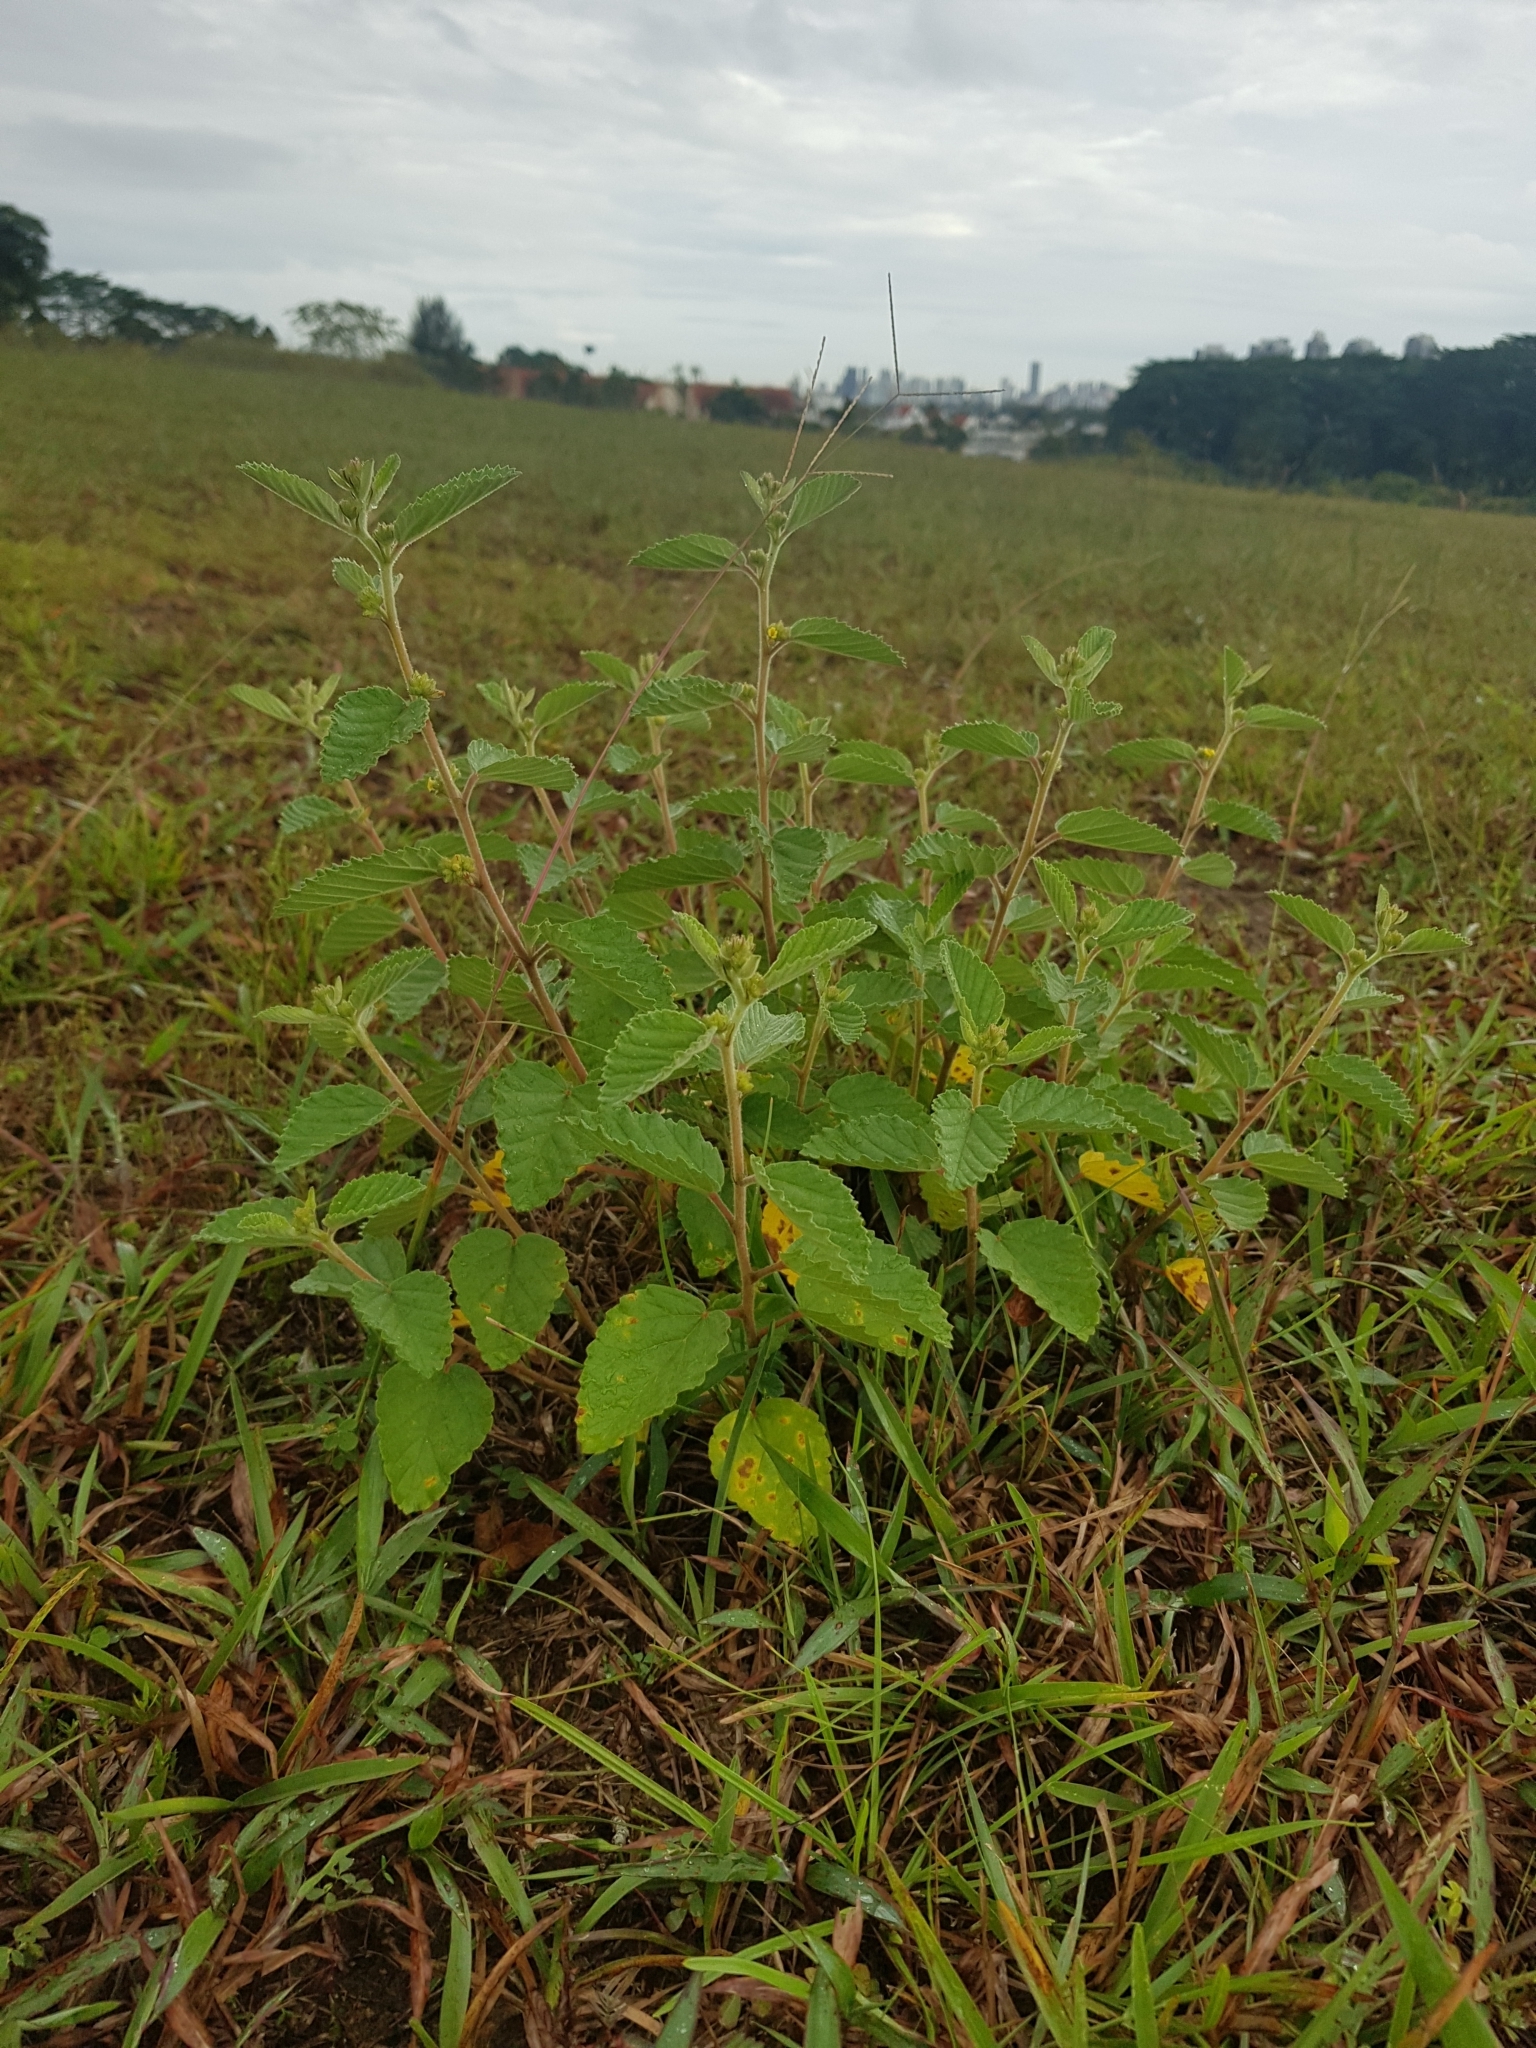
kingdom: Plantae
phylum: Tracheophyta
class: Magnoliopsida
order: Malvales
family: Malvaceae
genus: Waltheria
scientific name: Waltheria indica
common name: Leather-coat
